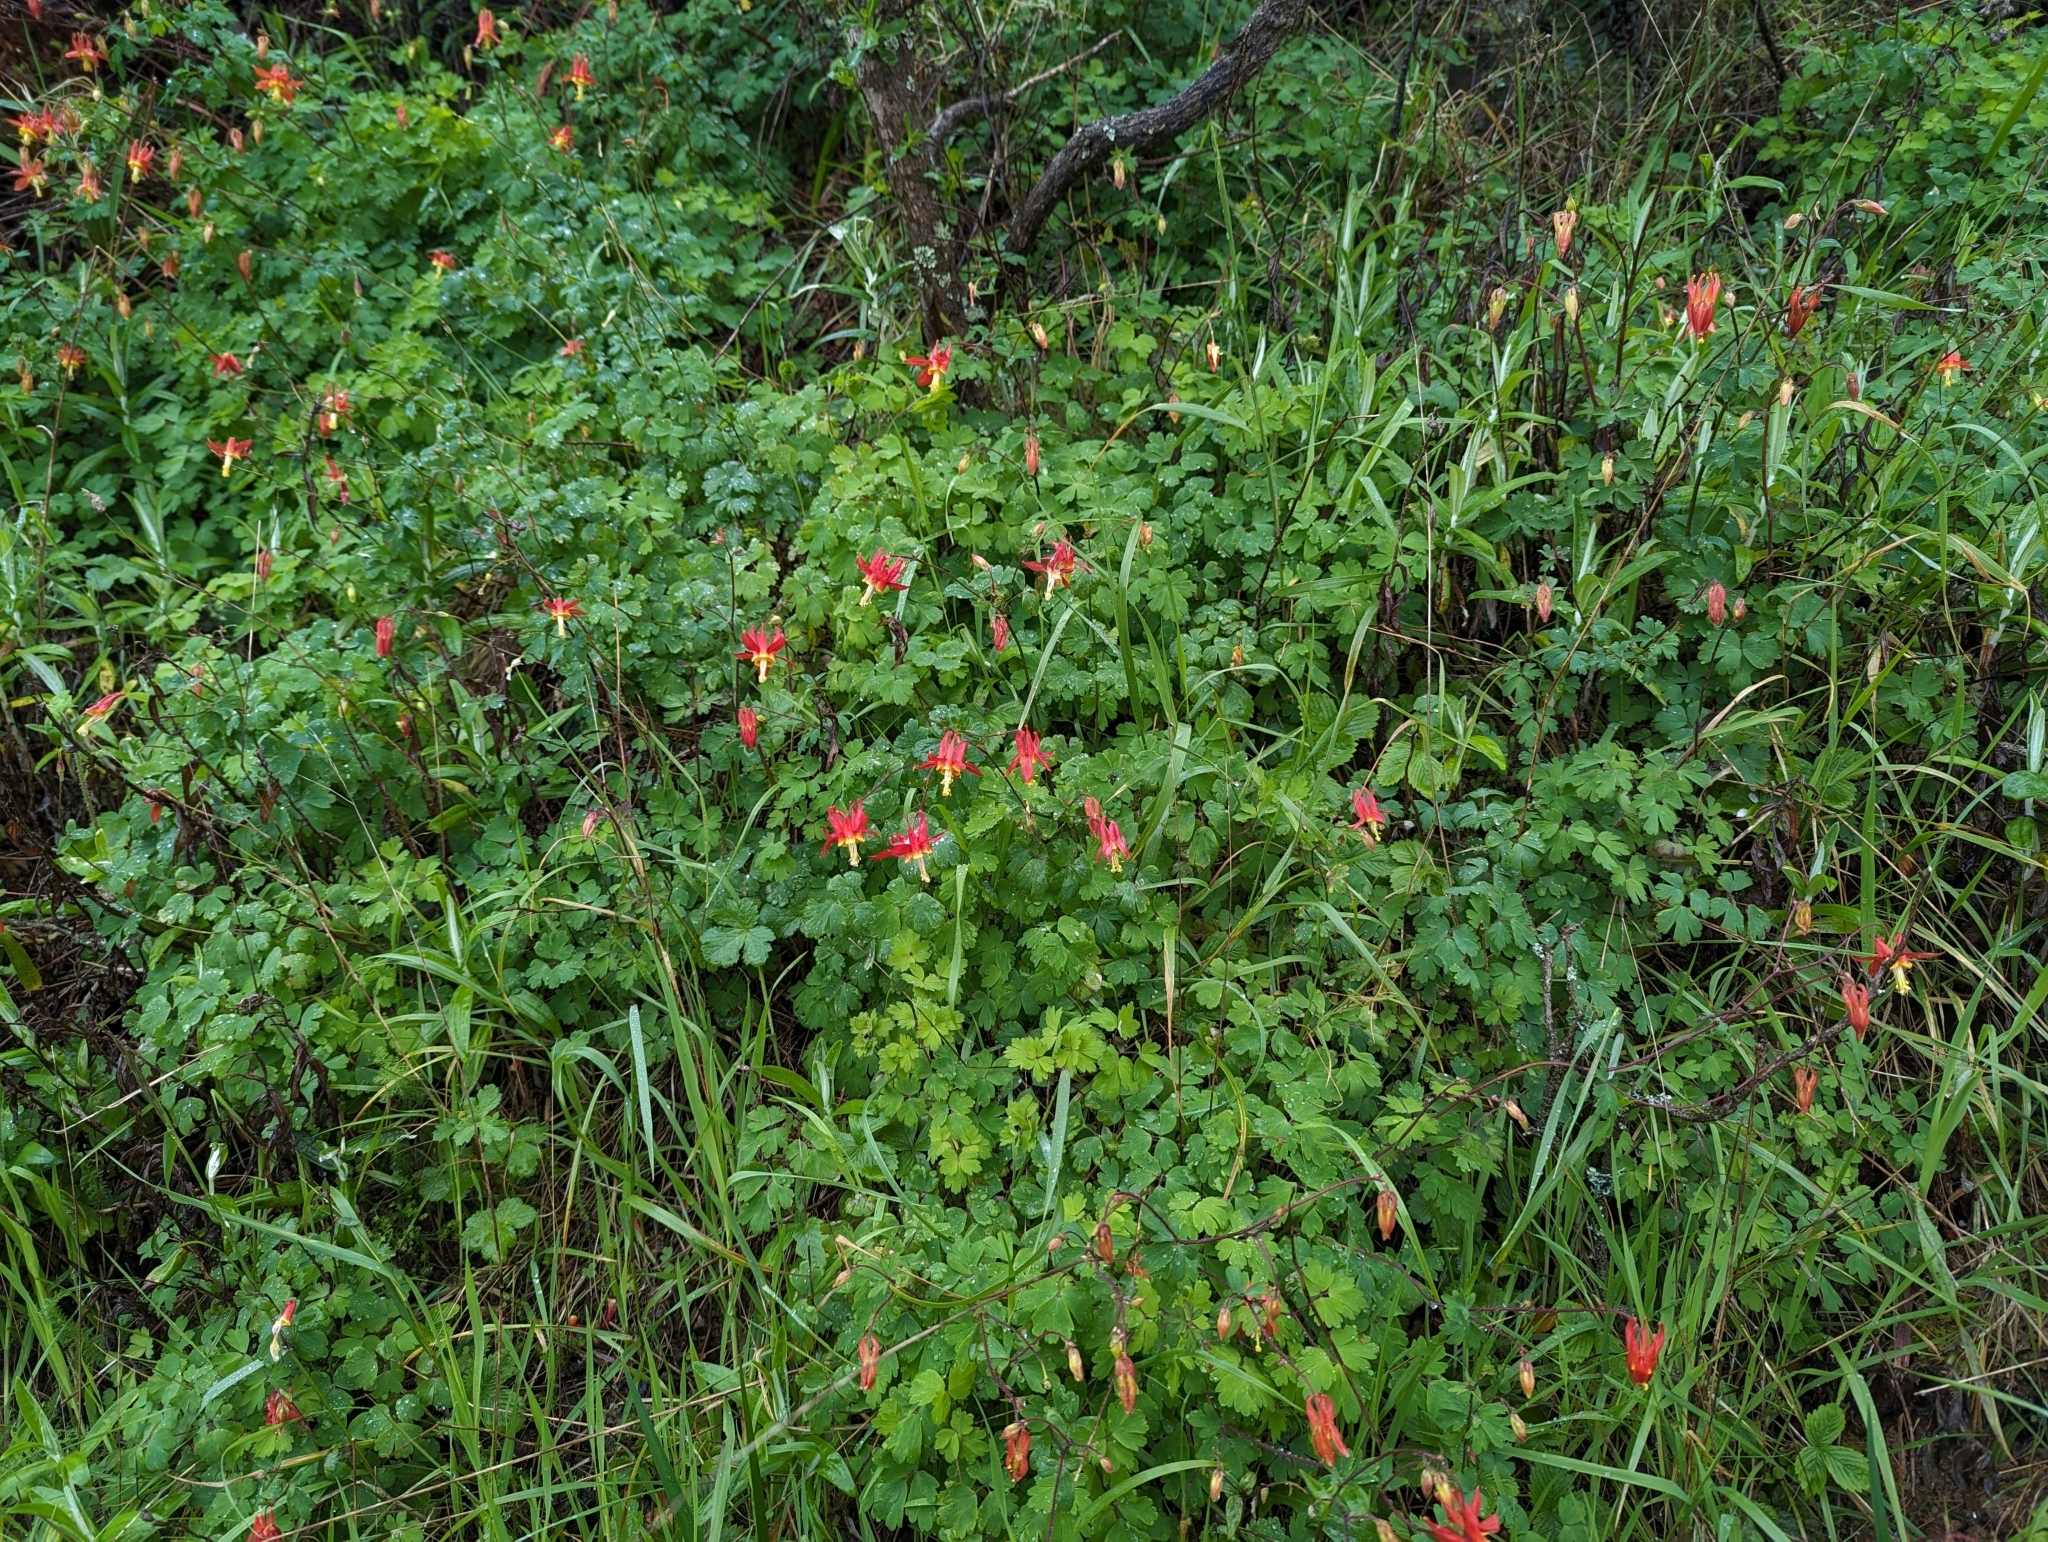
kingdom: Plantae
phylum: Tracheophyta
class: Magnoliopsida
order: Ranunculales
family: Ranunculaceae
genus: Aquilegia
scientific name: Aquilegia formosa
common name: Sitka columbine
